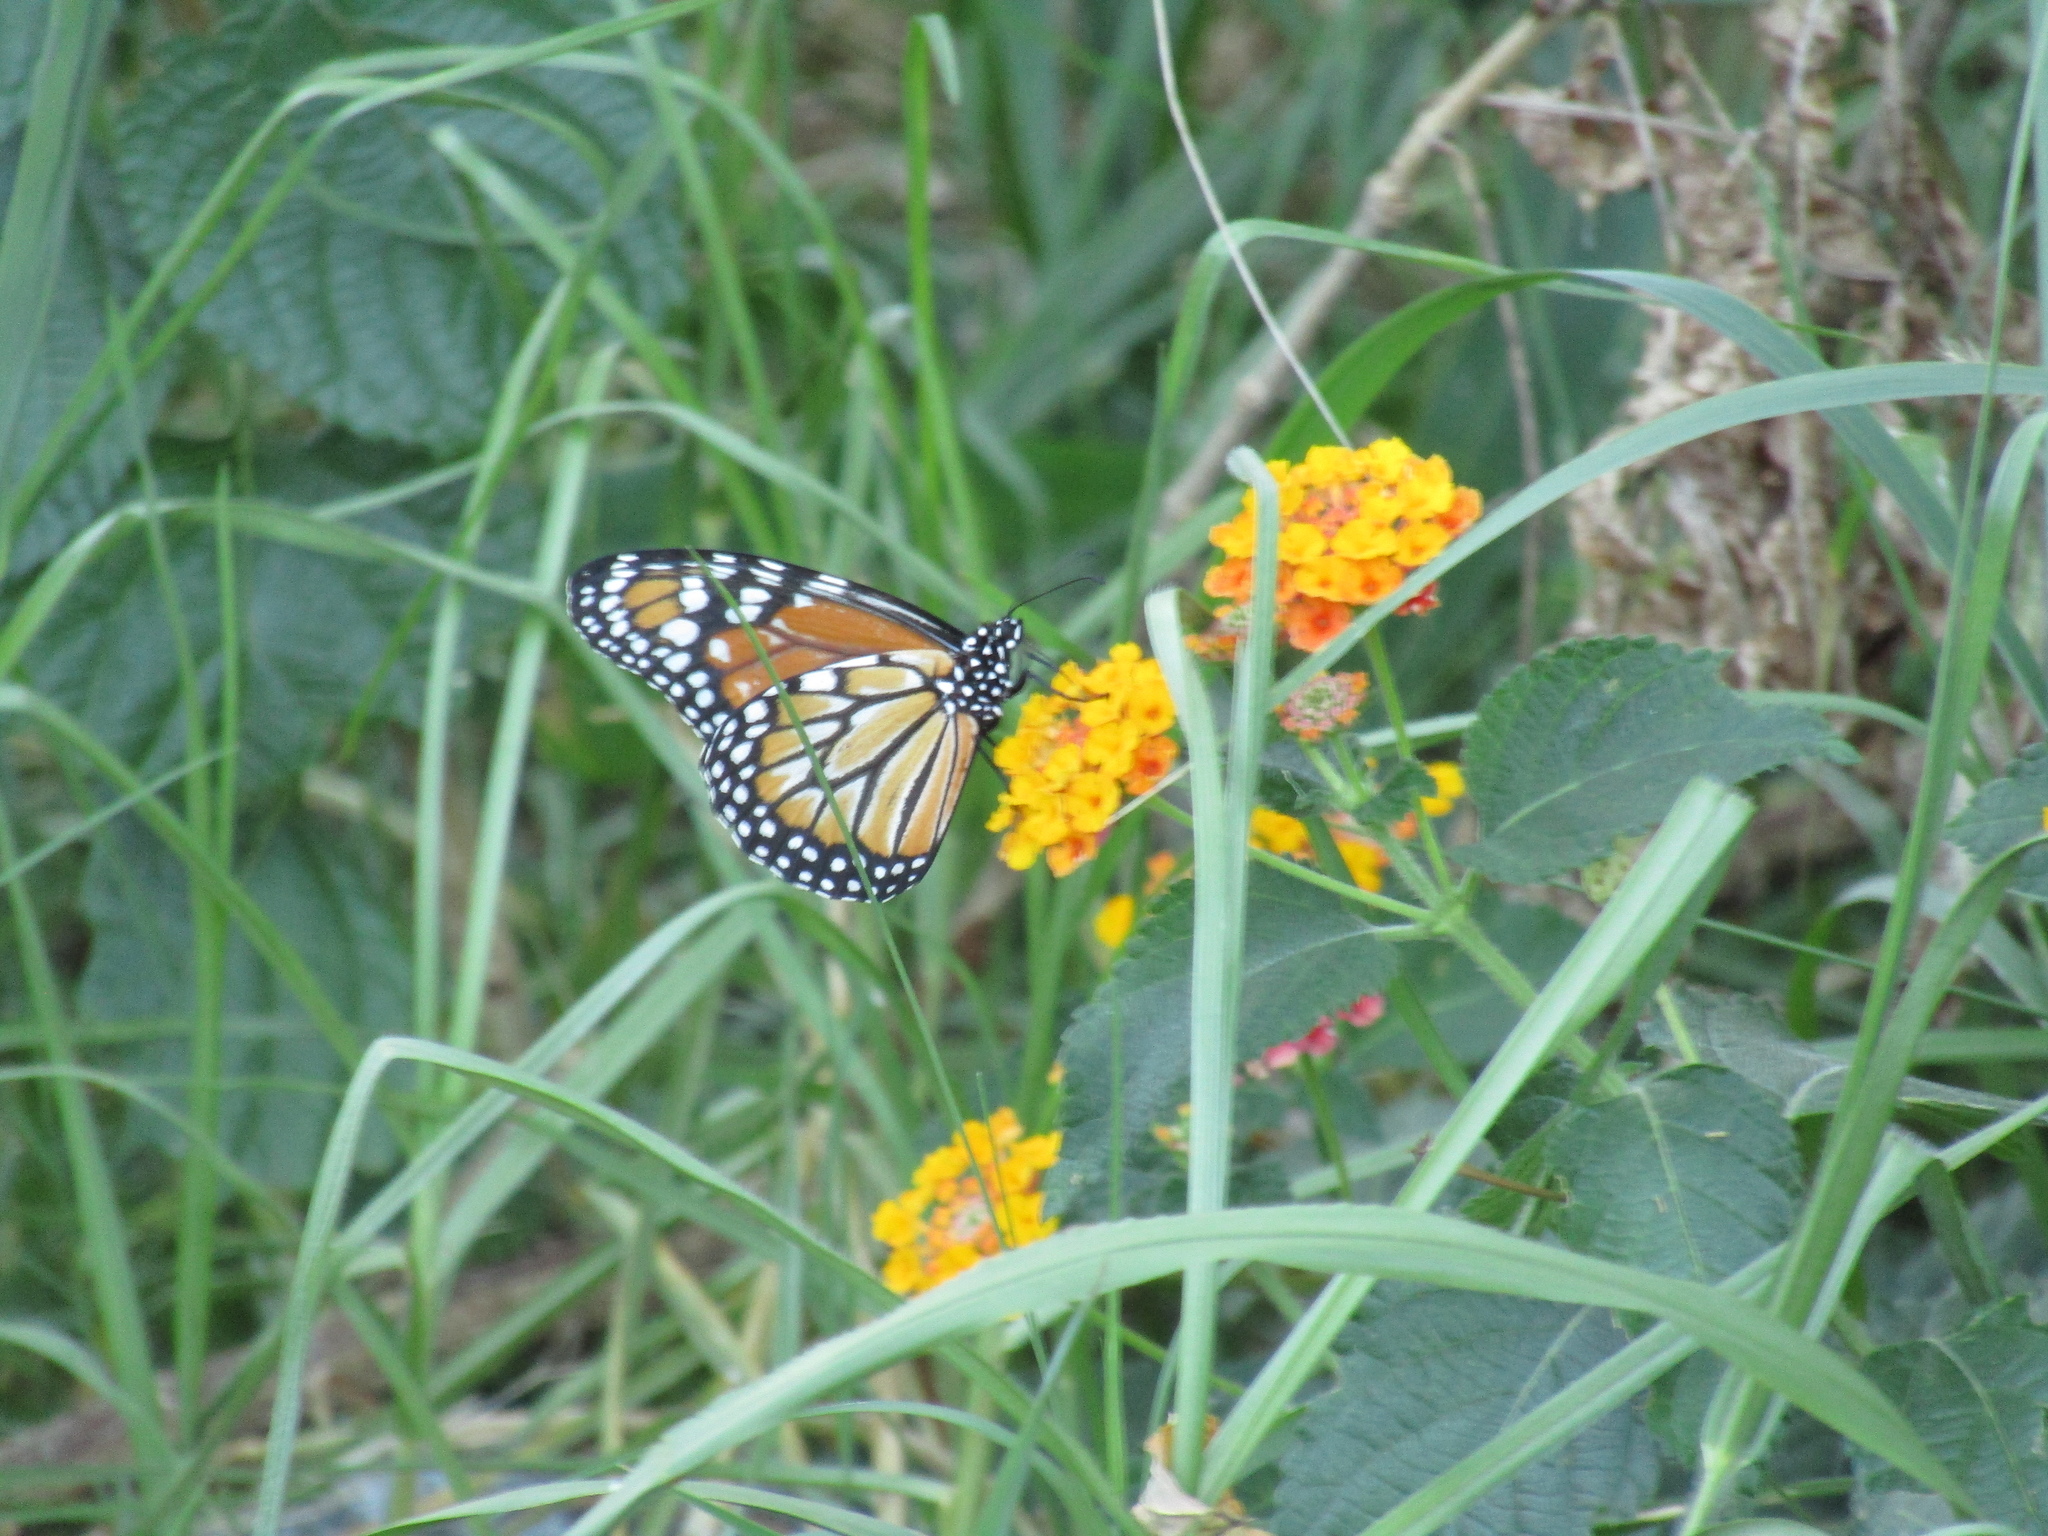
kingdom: Animalia
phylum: Arthropoda
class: Insecta
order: Lepidoptera
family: Nymphalidae
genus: Danaus
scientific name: Danaus erippus
